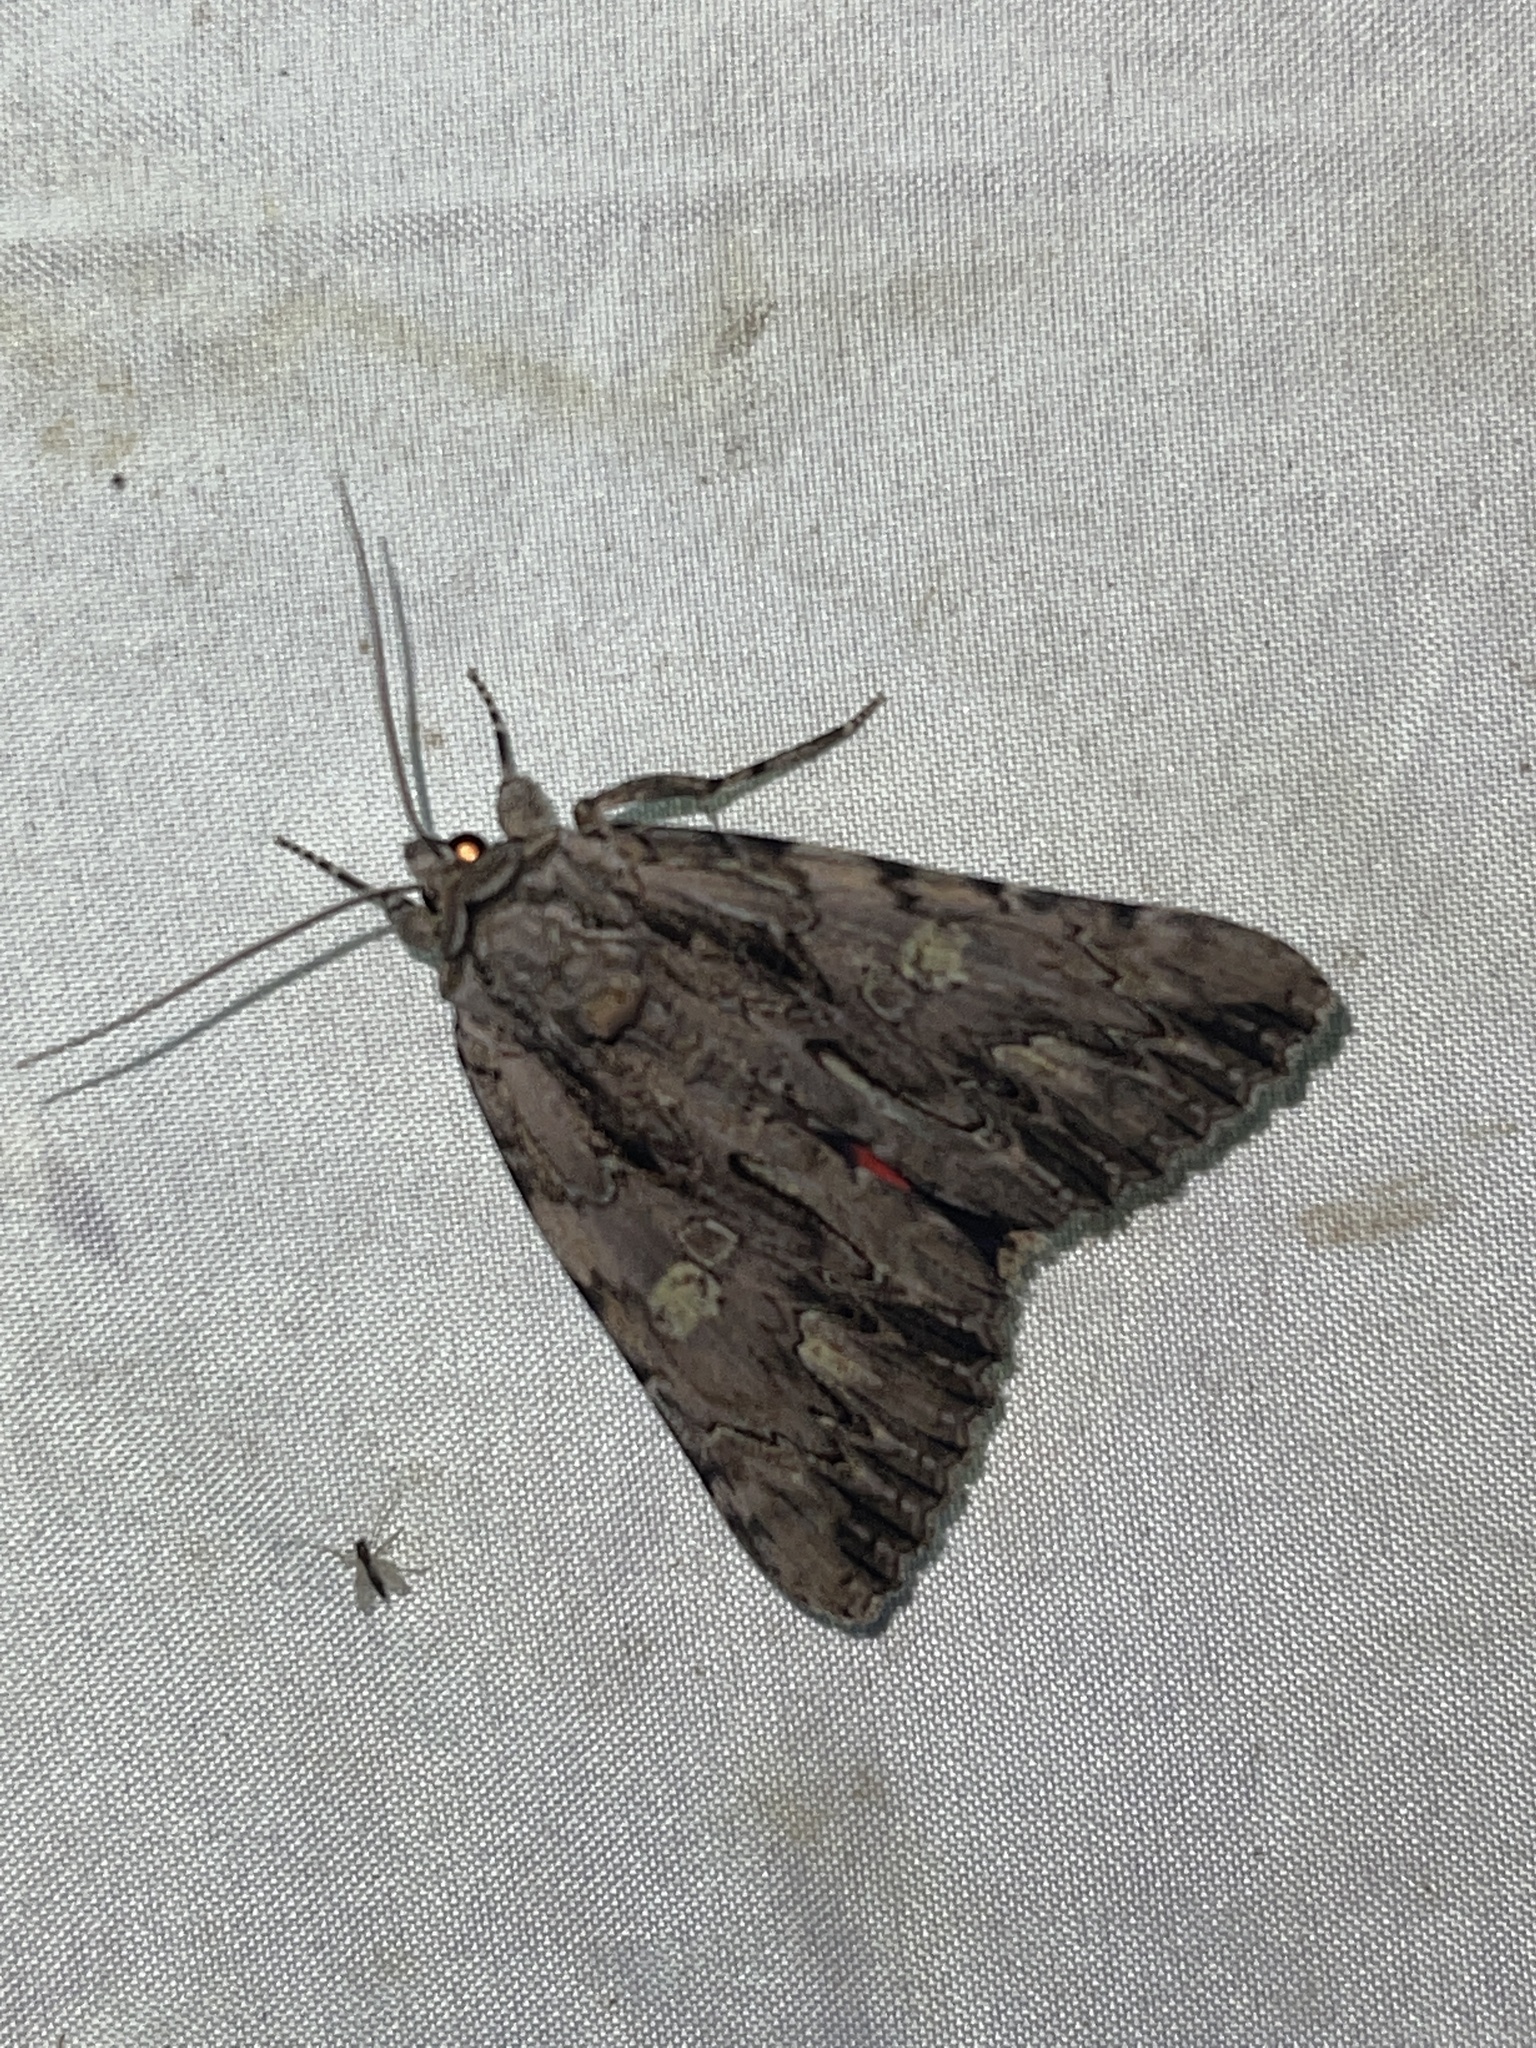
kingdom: Animalia
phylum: Arthropoda
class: Insecta
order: Lepidoptera
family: Erebidae
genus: Catocala
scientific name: Catocala coccinata
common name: Scarlet underwing
